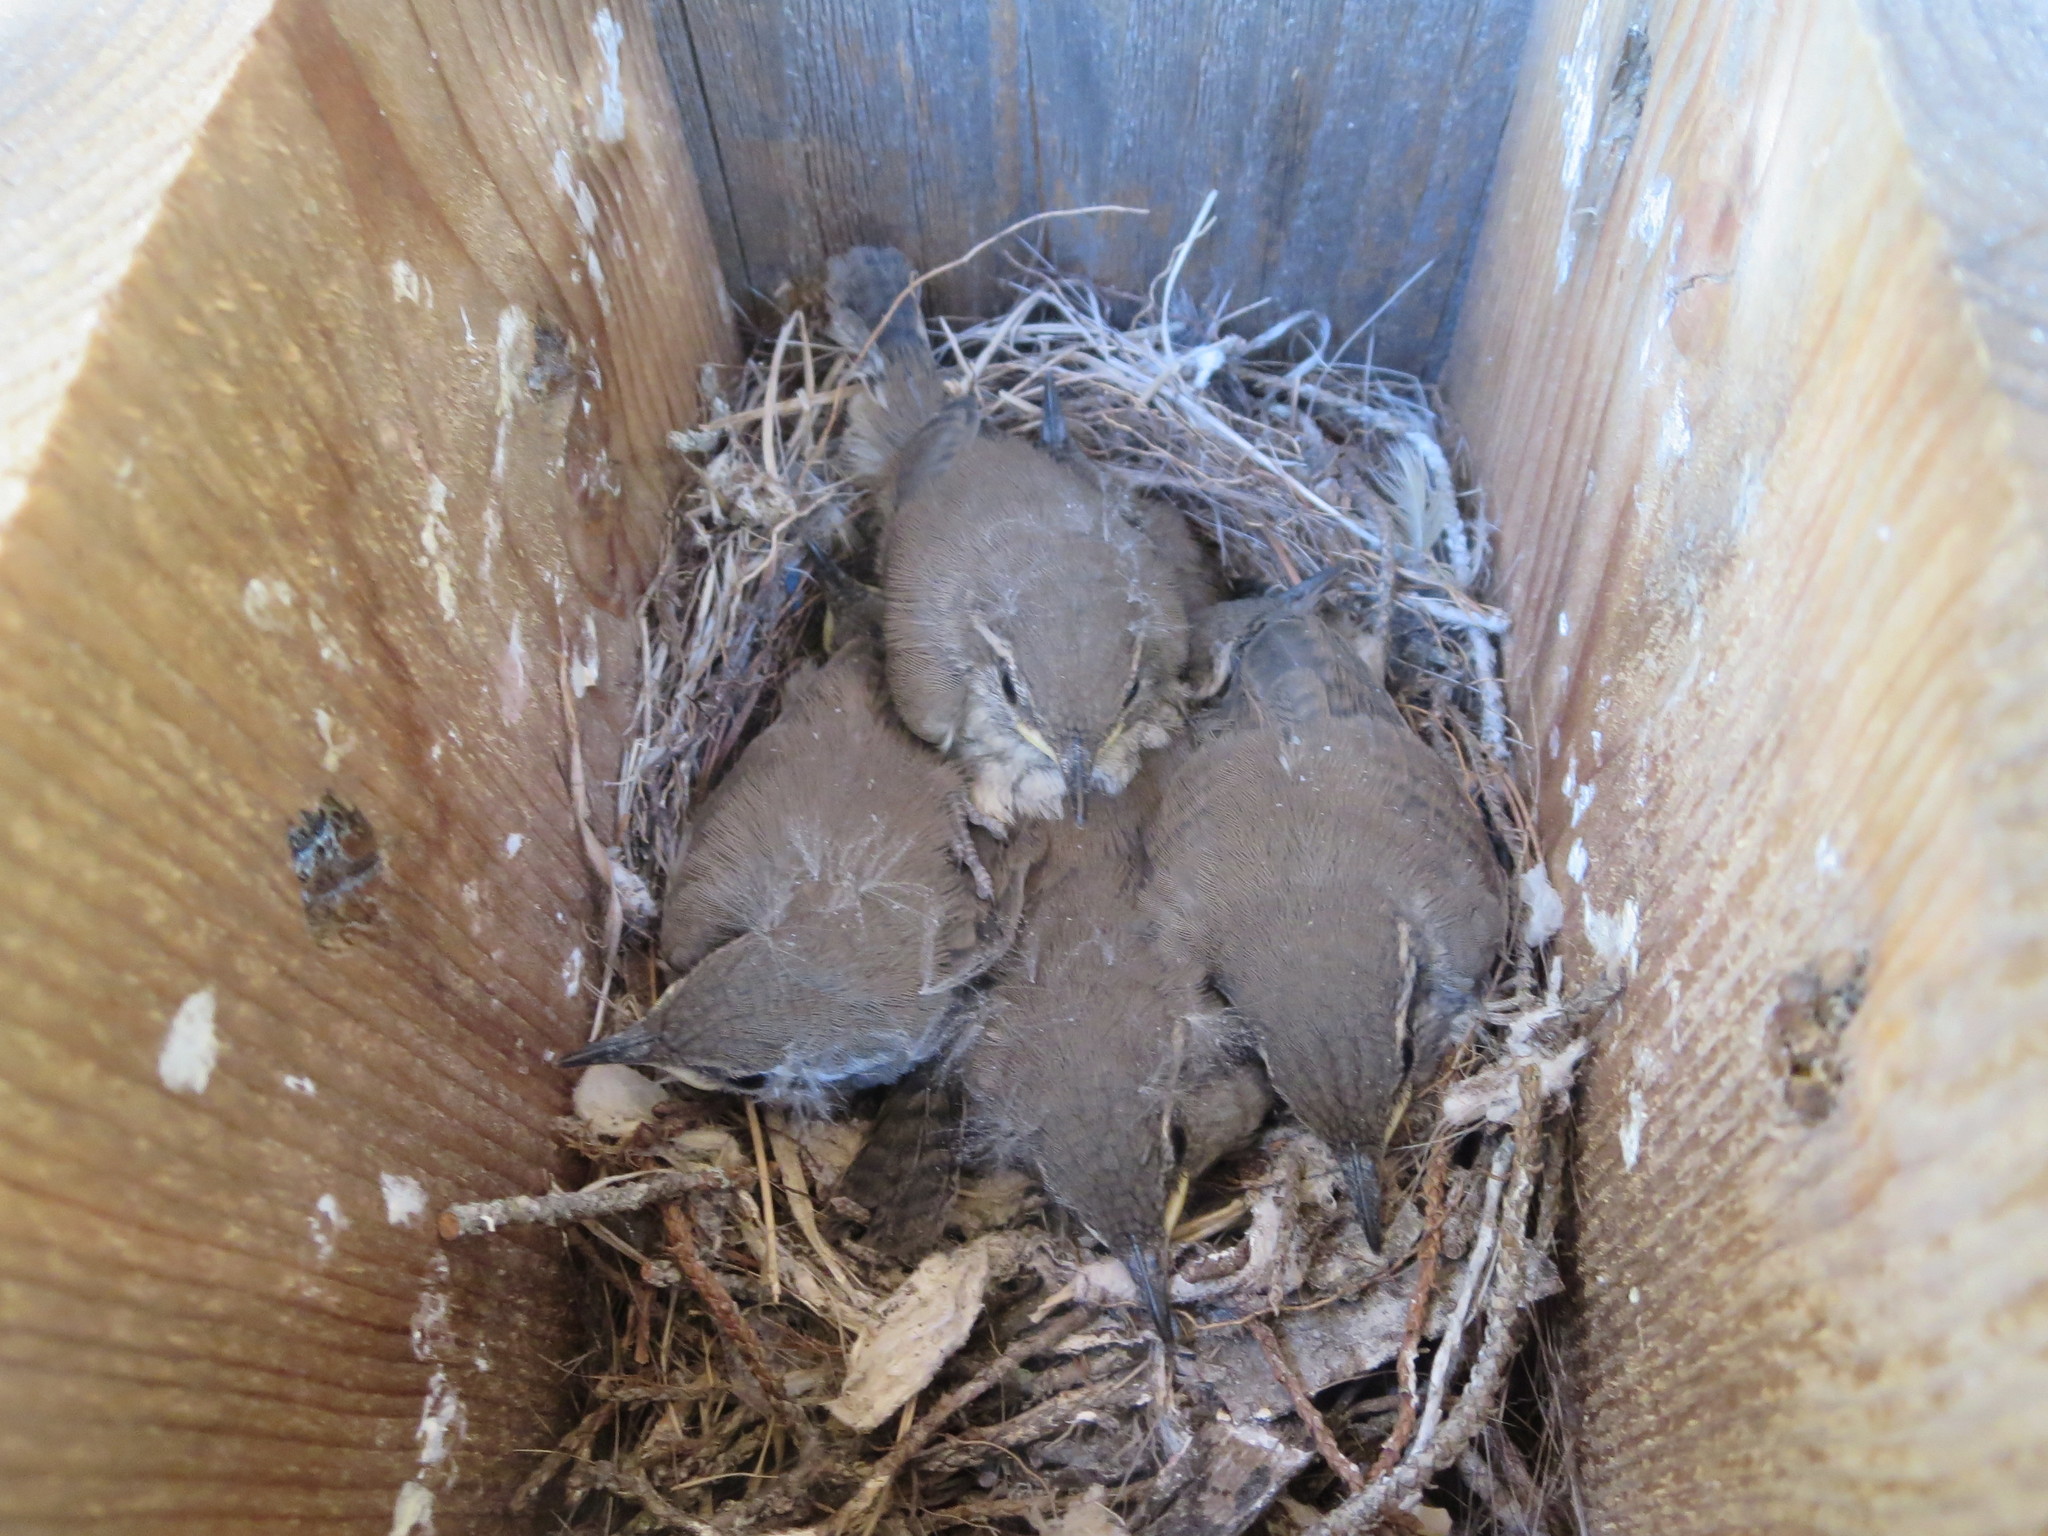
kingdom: Animalia
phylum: Chordata
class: Aves
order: Passeriformes
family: Troglodytidae
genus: Thryomanes
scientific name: Thryomanes bewickii
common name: Bewick's wren
